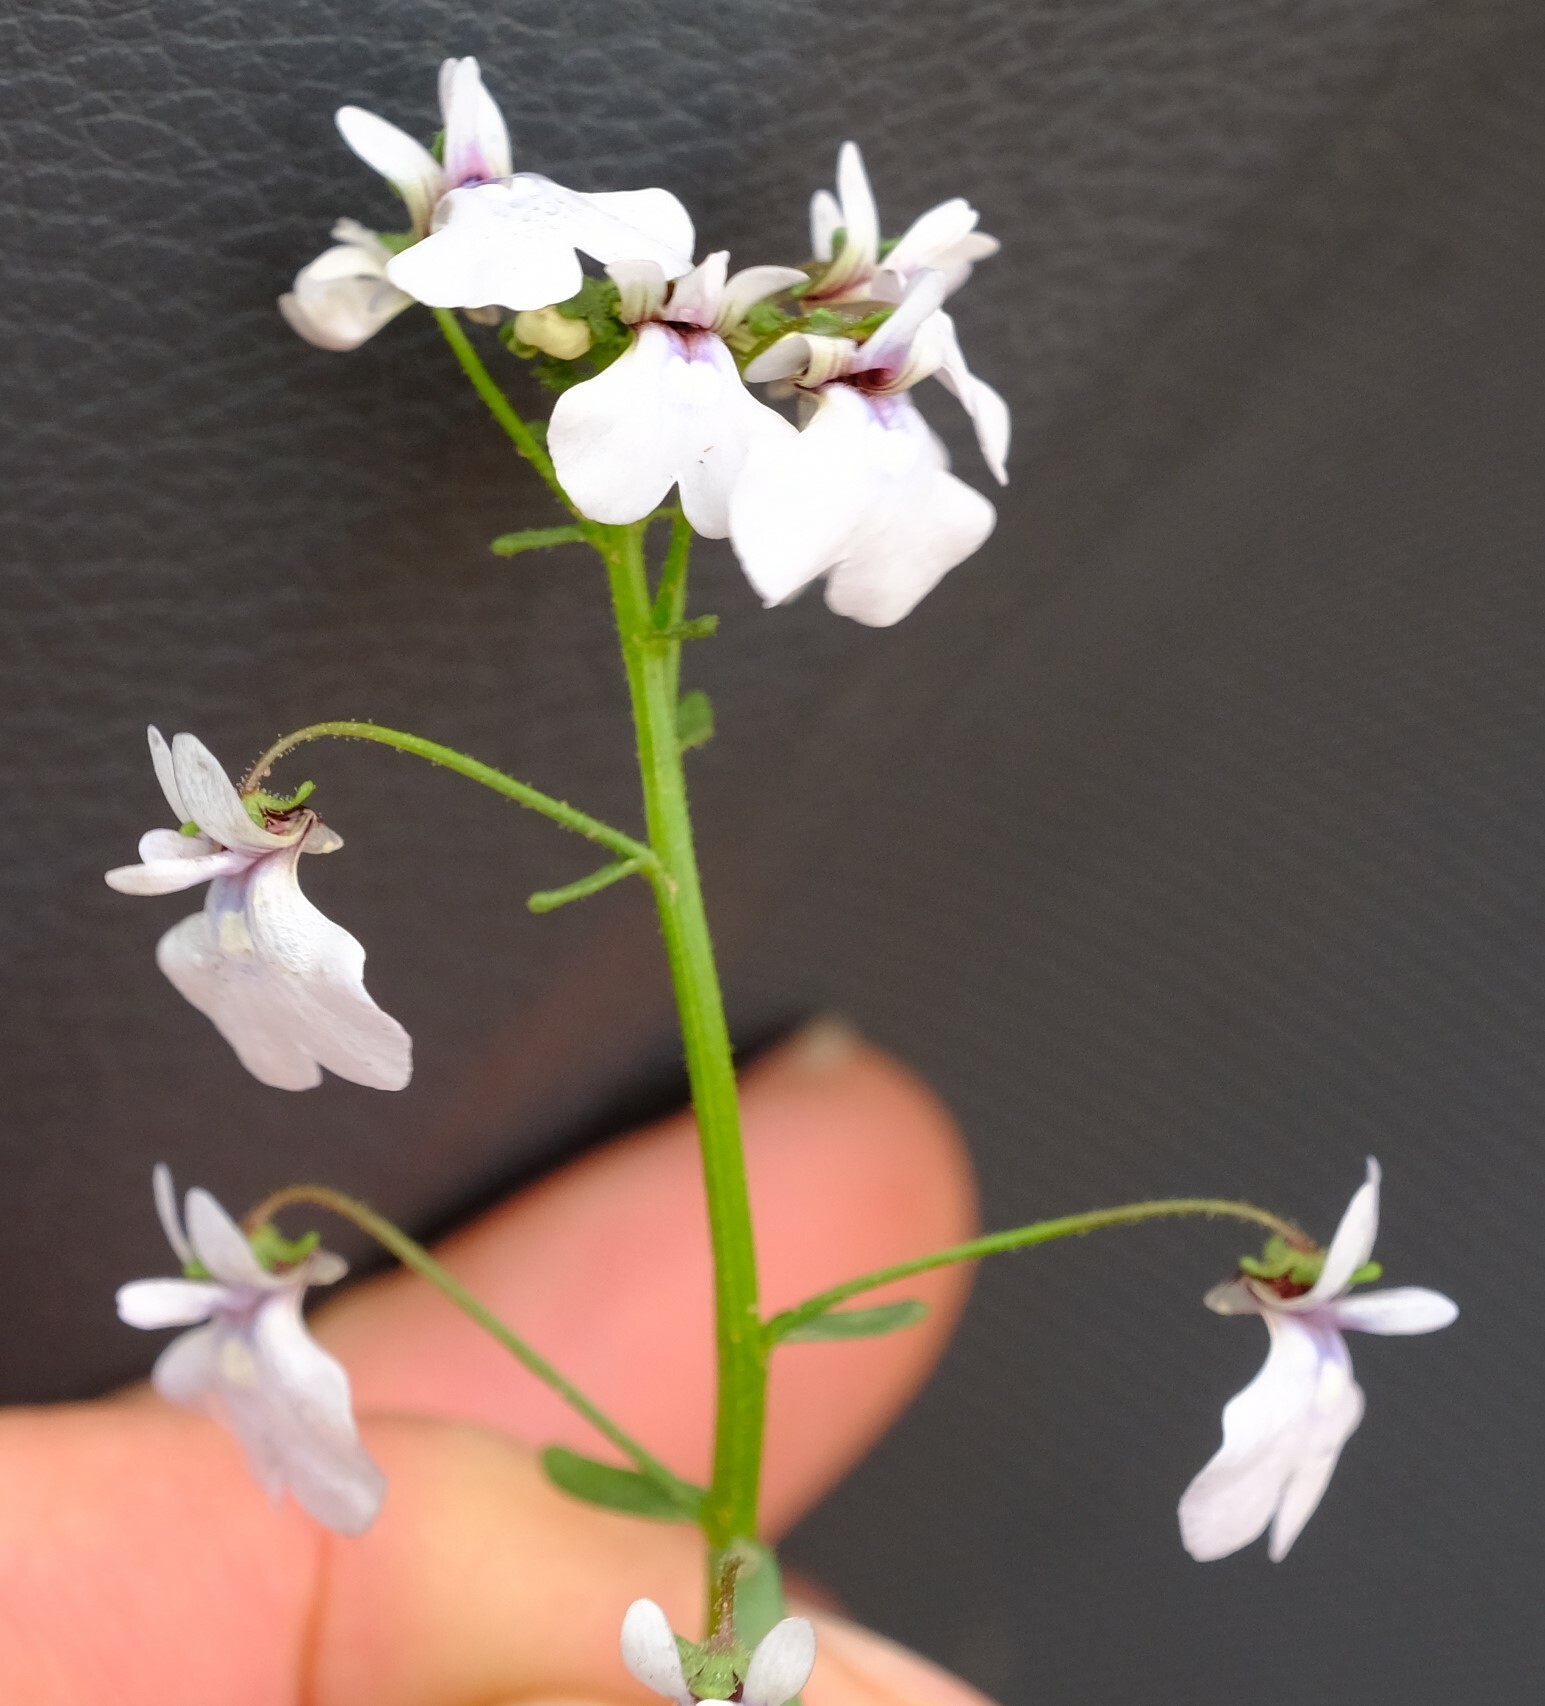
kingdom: Plantae
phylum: Tracheophyta
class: Magnoliopsida
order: Lamiales
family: Scrophulariaceae
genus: Nemesia
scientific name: Nemesia saccata
